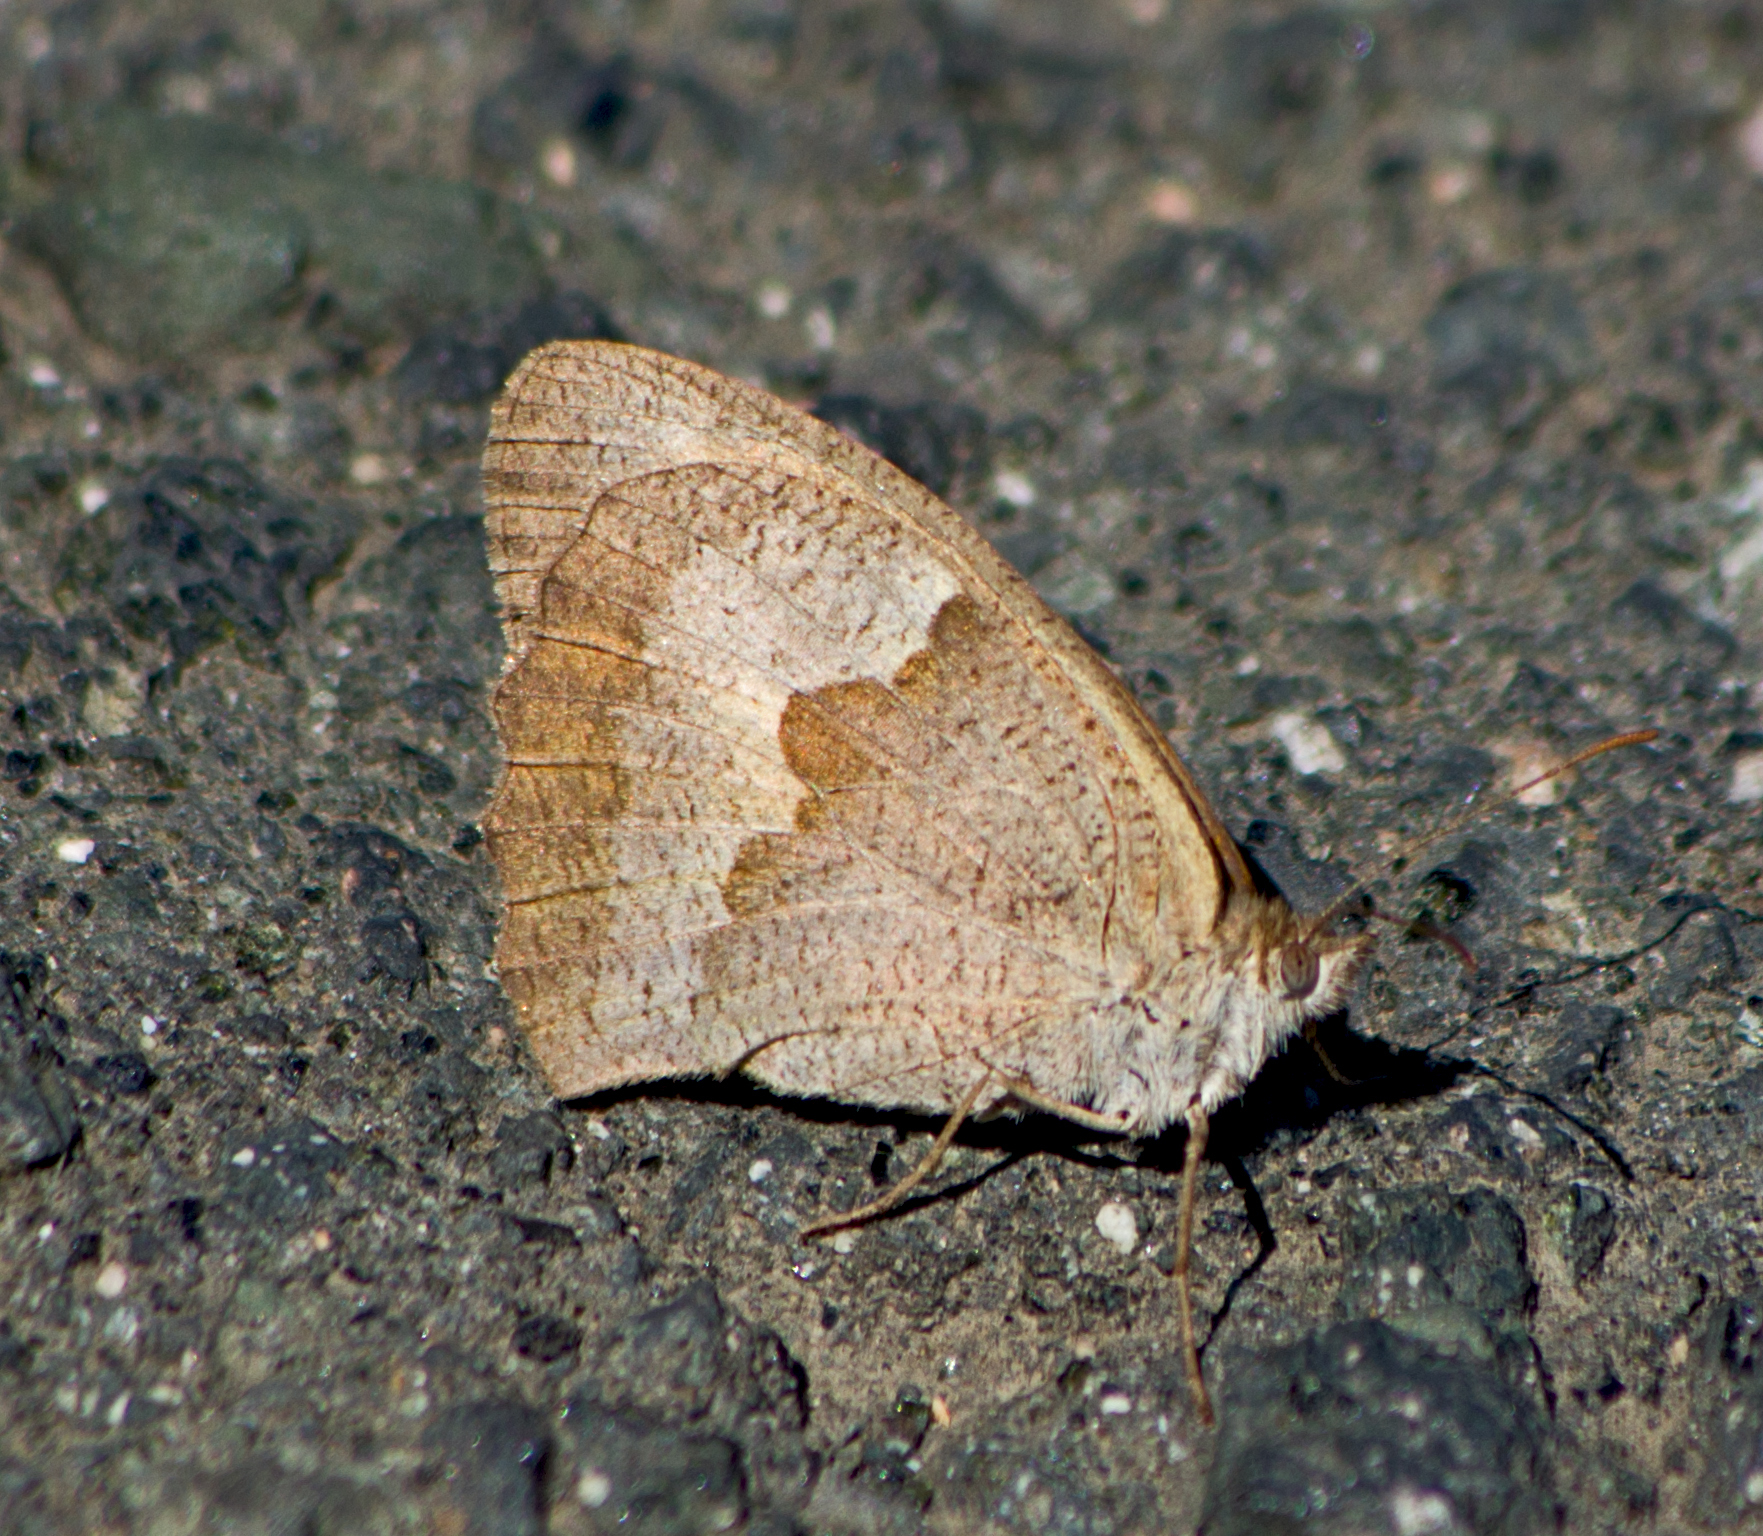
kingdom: Animalia
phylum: Arthropoda
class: Insecta
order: Lepidoptera
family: Nymphalidae
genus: Maniola
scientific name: Maniola jurtina
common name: Meadow brown
